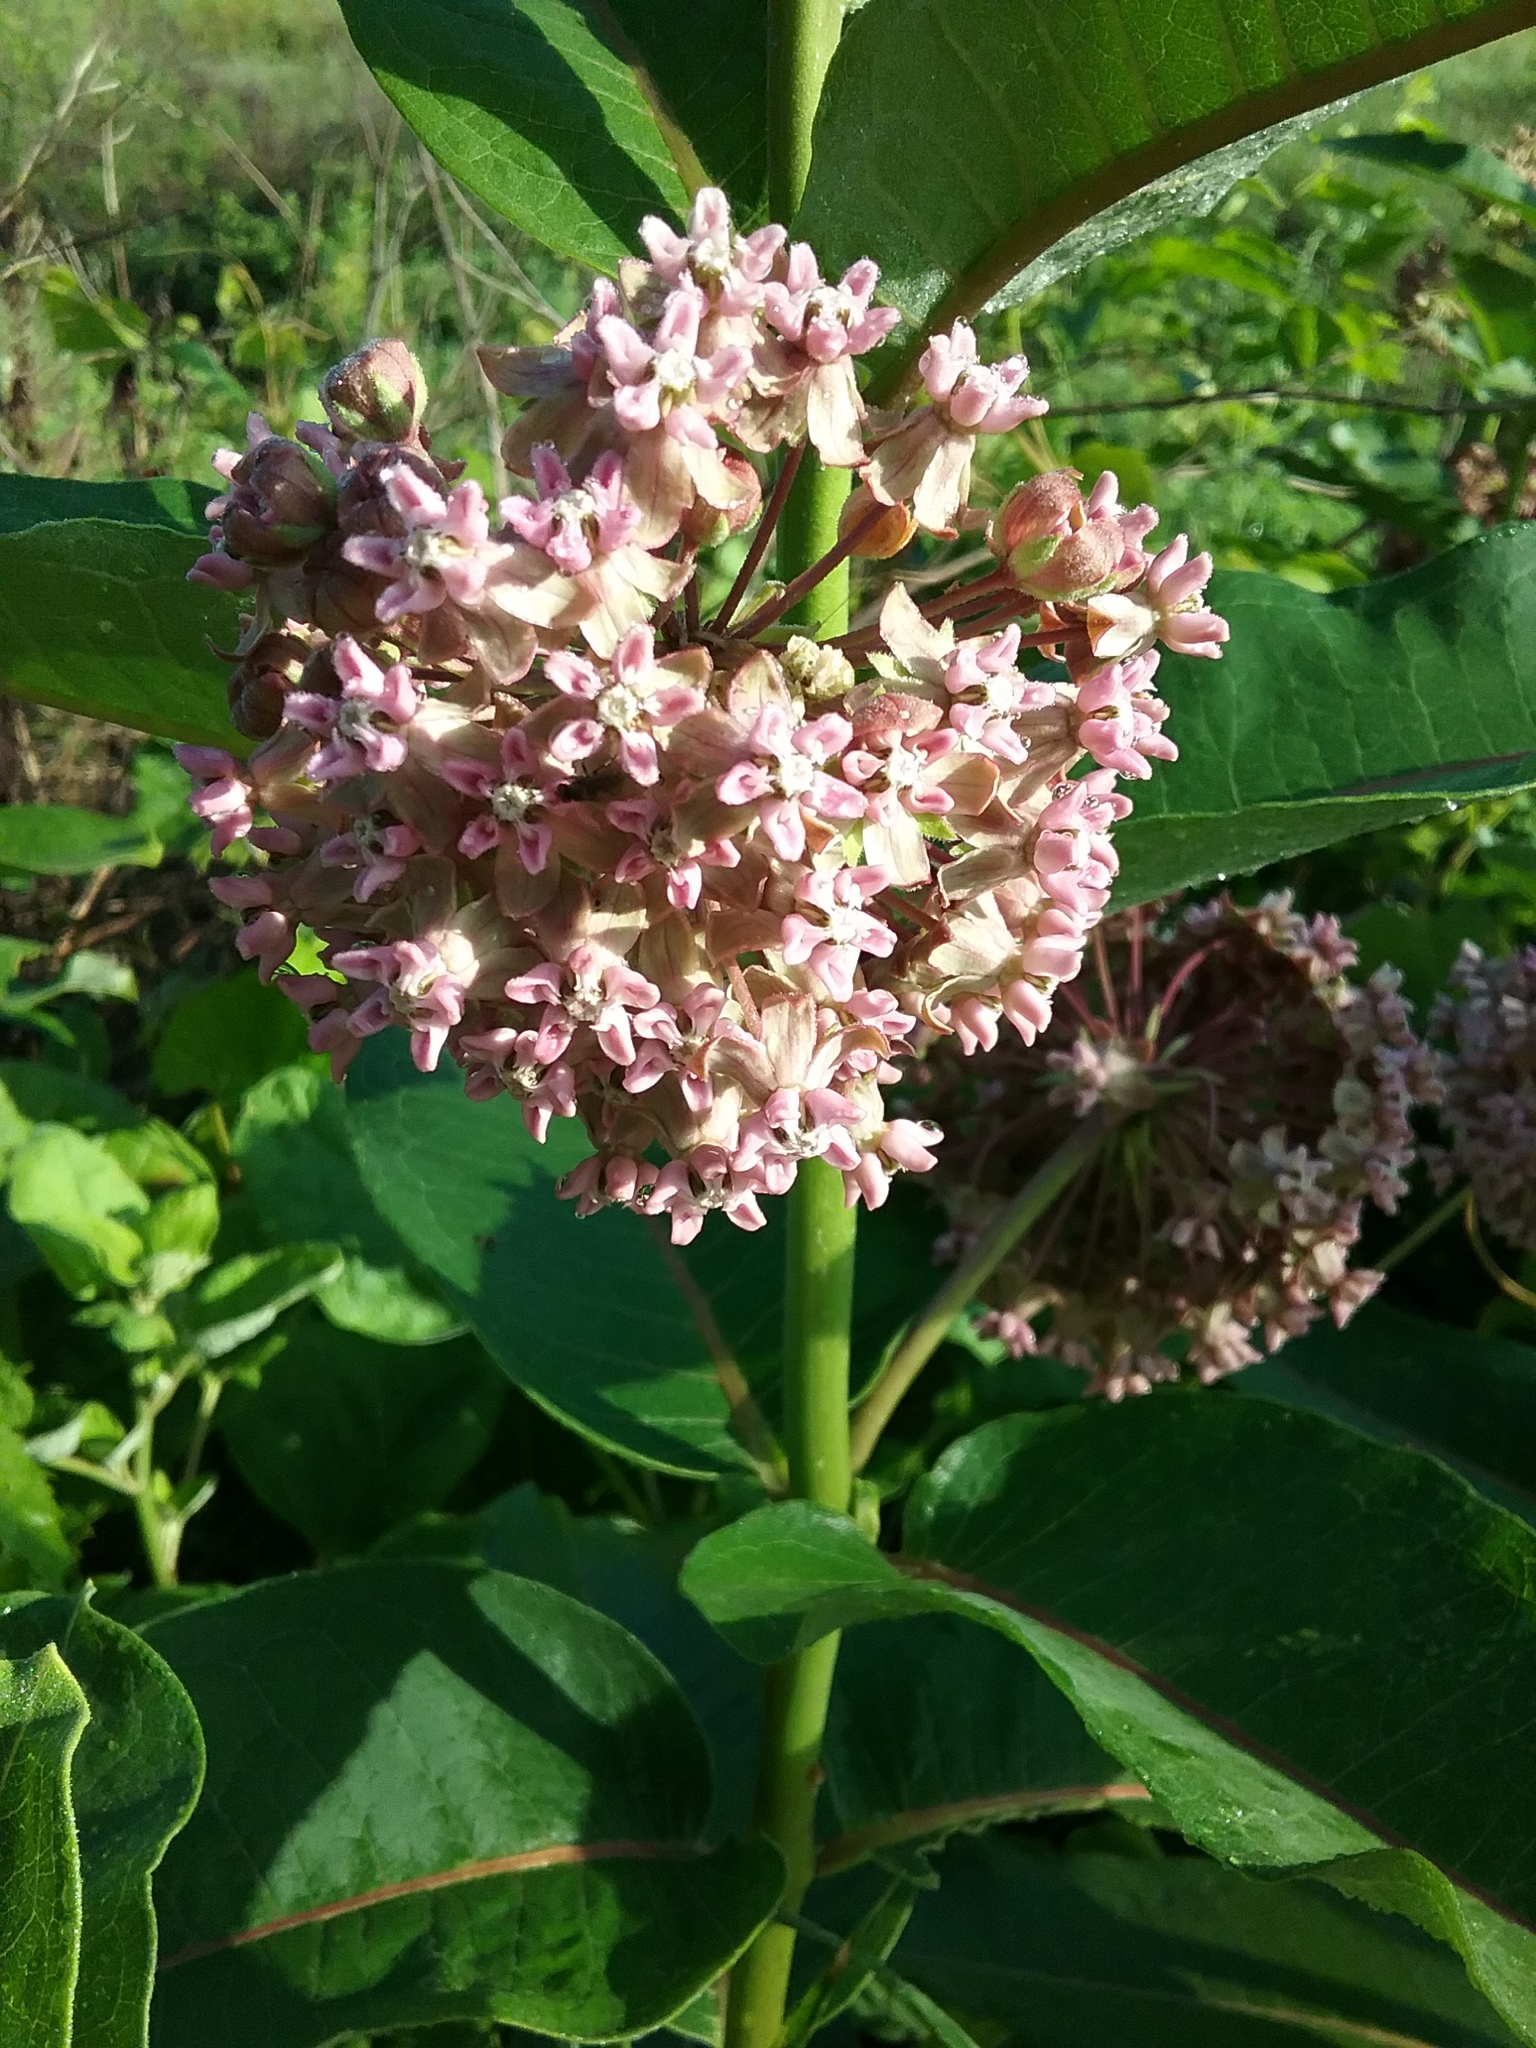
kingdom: Plantae
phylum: Tracheophyta
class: Magnoliopsida
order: Gentianales
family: Apocynaceae
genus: Asclepias
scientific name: Asclepias syriaca
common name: Common milkweed
